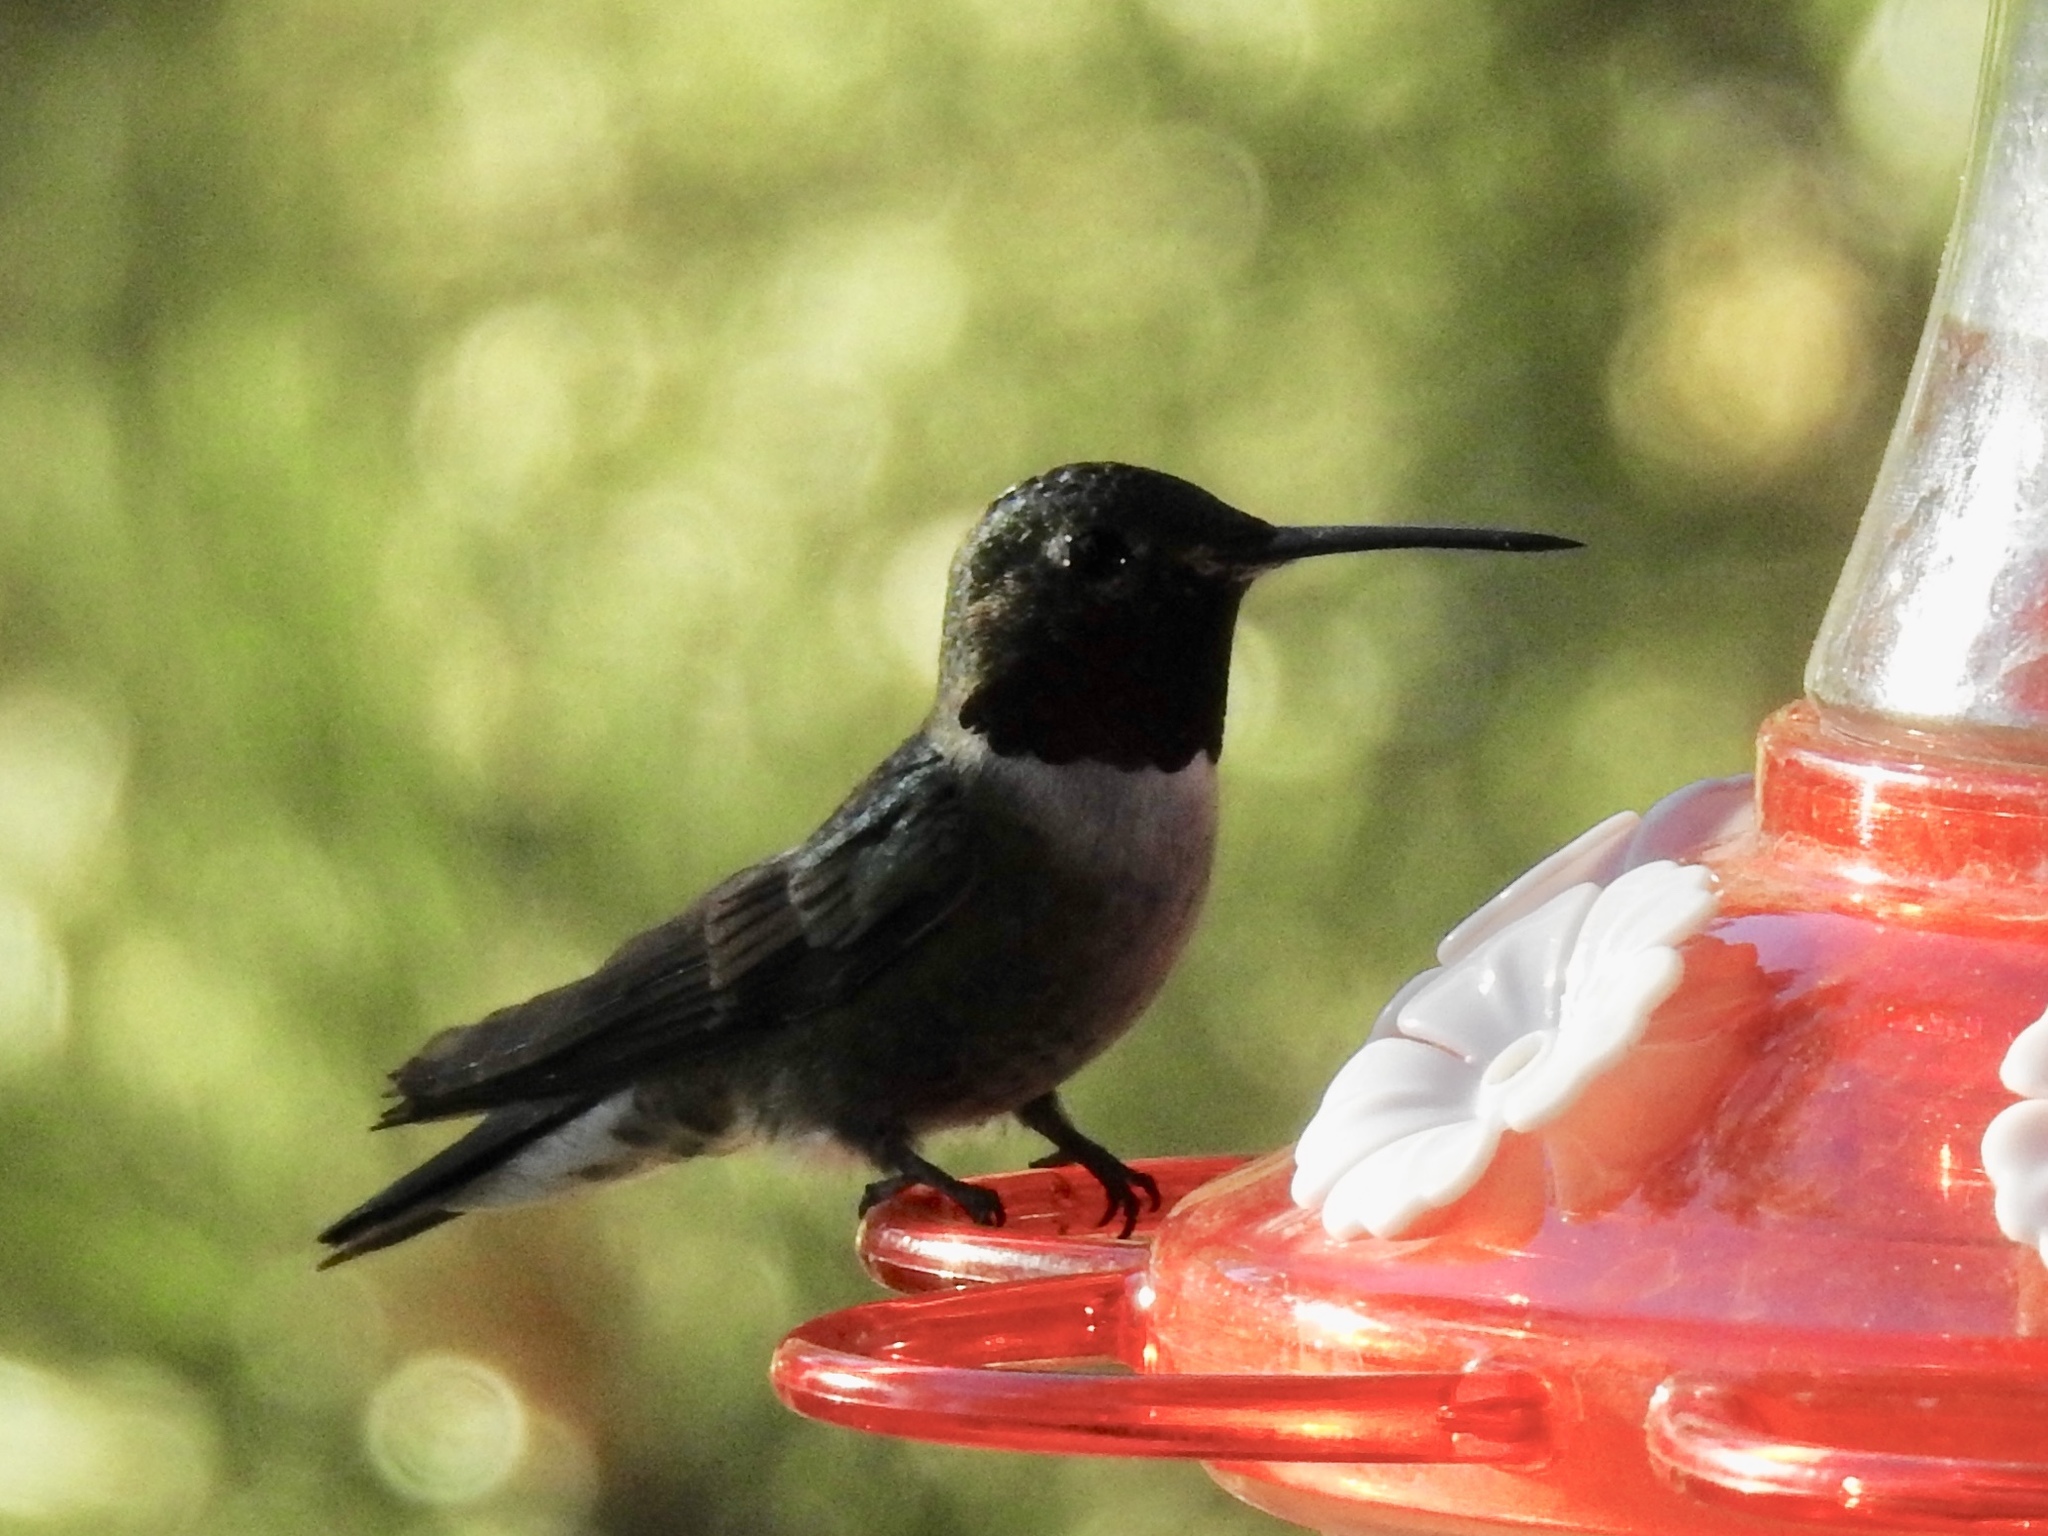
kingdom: Animalia
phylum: Chordata
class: Aves
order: Apodiformes
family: Trochilidae
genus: Selasphorus
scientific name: Selasphorus platycercus
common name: Broad-tailed hummingbird
